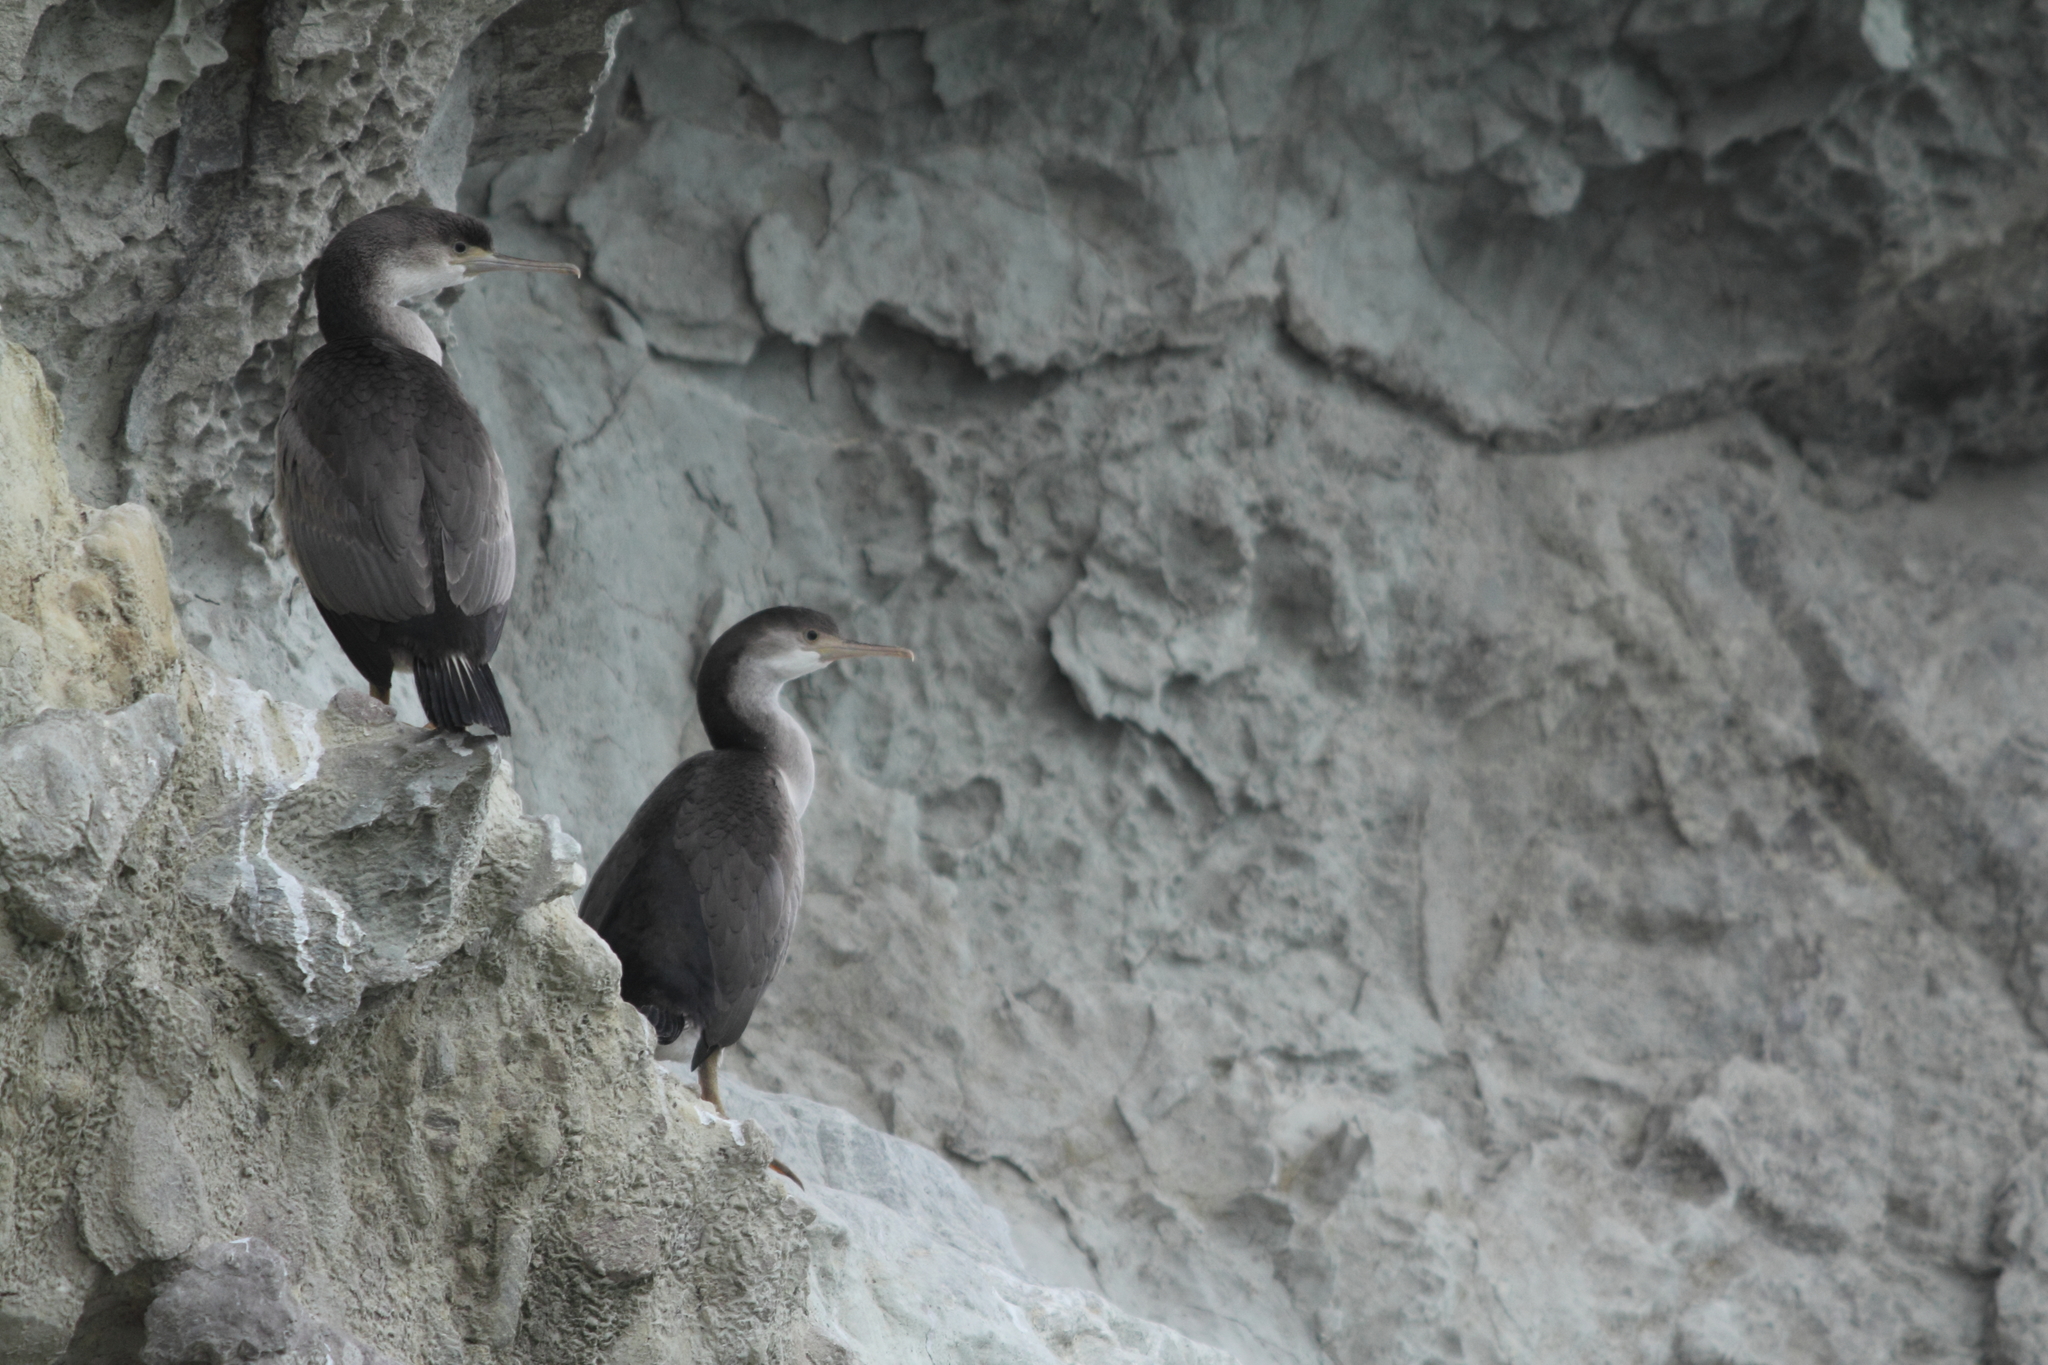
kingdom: Animalia
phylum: Chordata
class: Aves
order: Suliformes
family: Phalacrocoracidae
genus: Phalacrocorax
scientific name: Phalacrocorax punctatus
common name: Spotted shag
